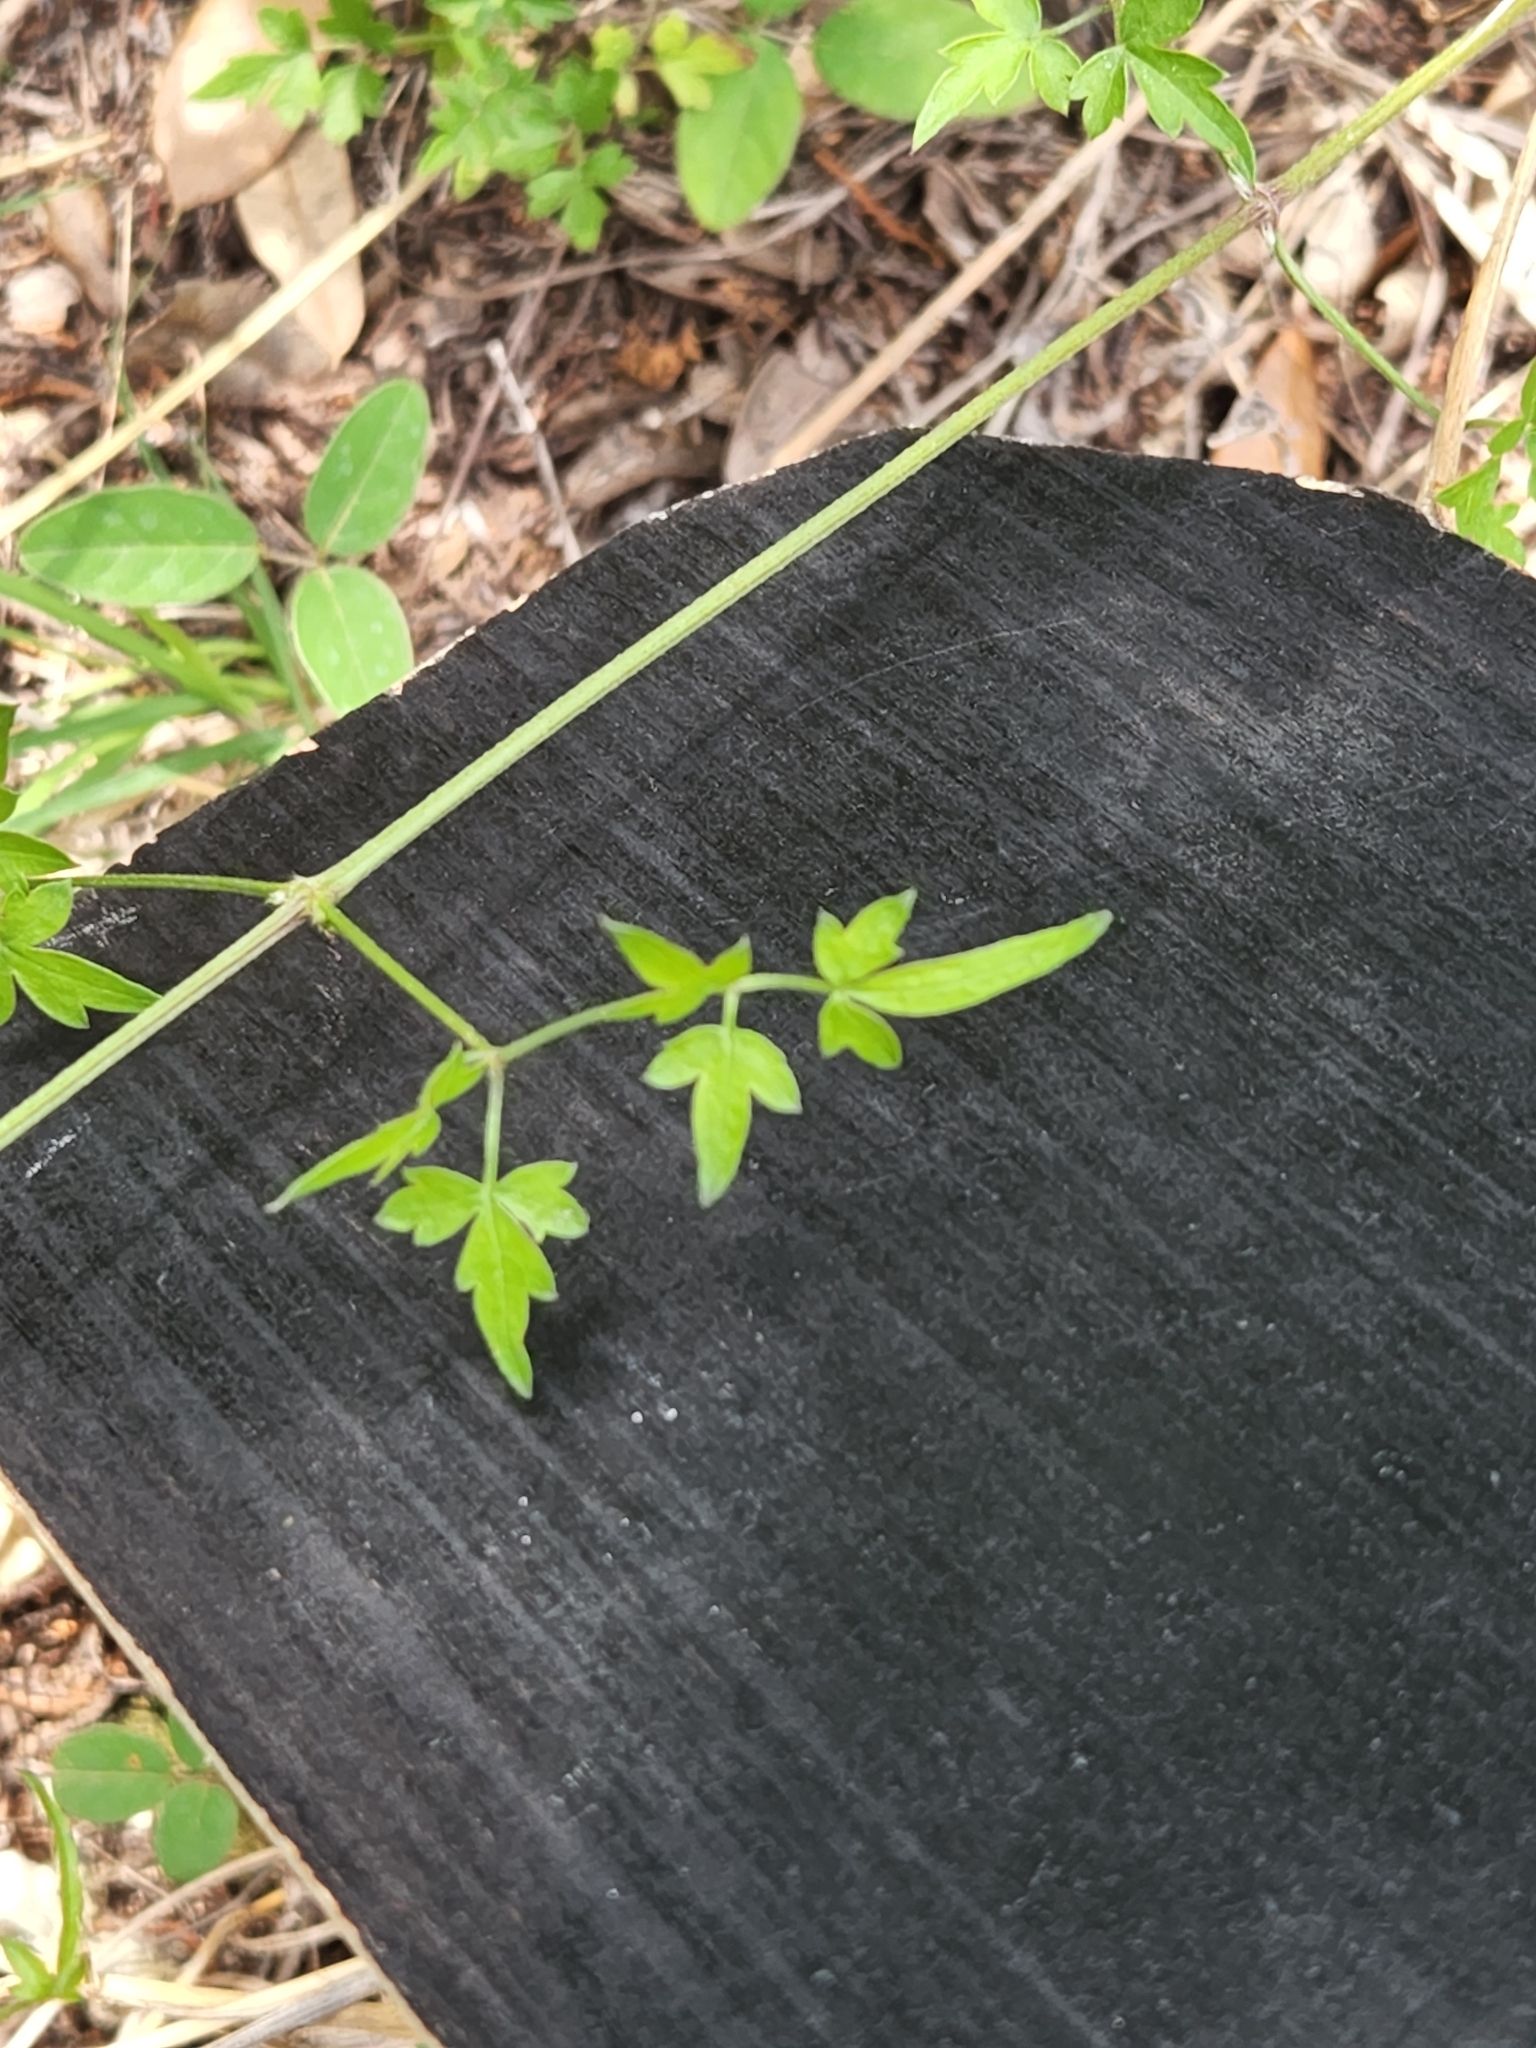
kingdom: Plantae
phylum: Tracheophyta
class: Magnoliopsida
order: Ranunculales
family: Ranunculaceae
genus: Clematis
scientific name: Clematis drummondii
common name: Texas virgin's bower
